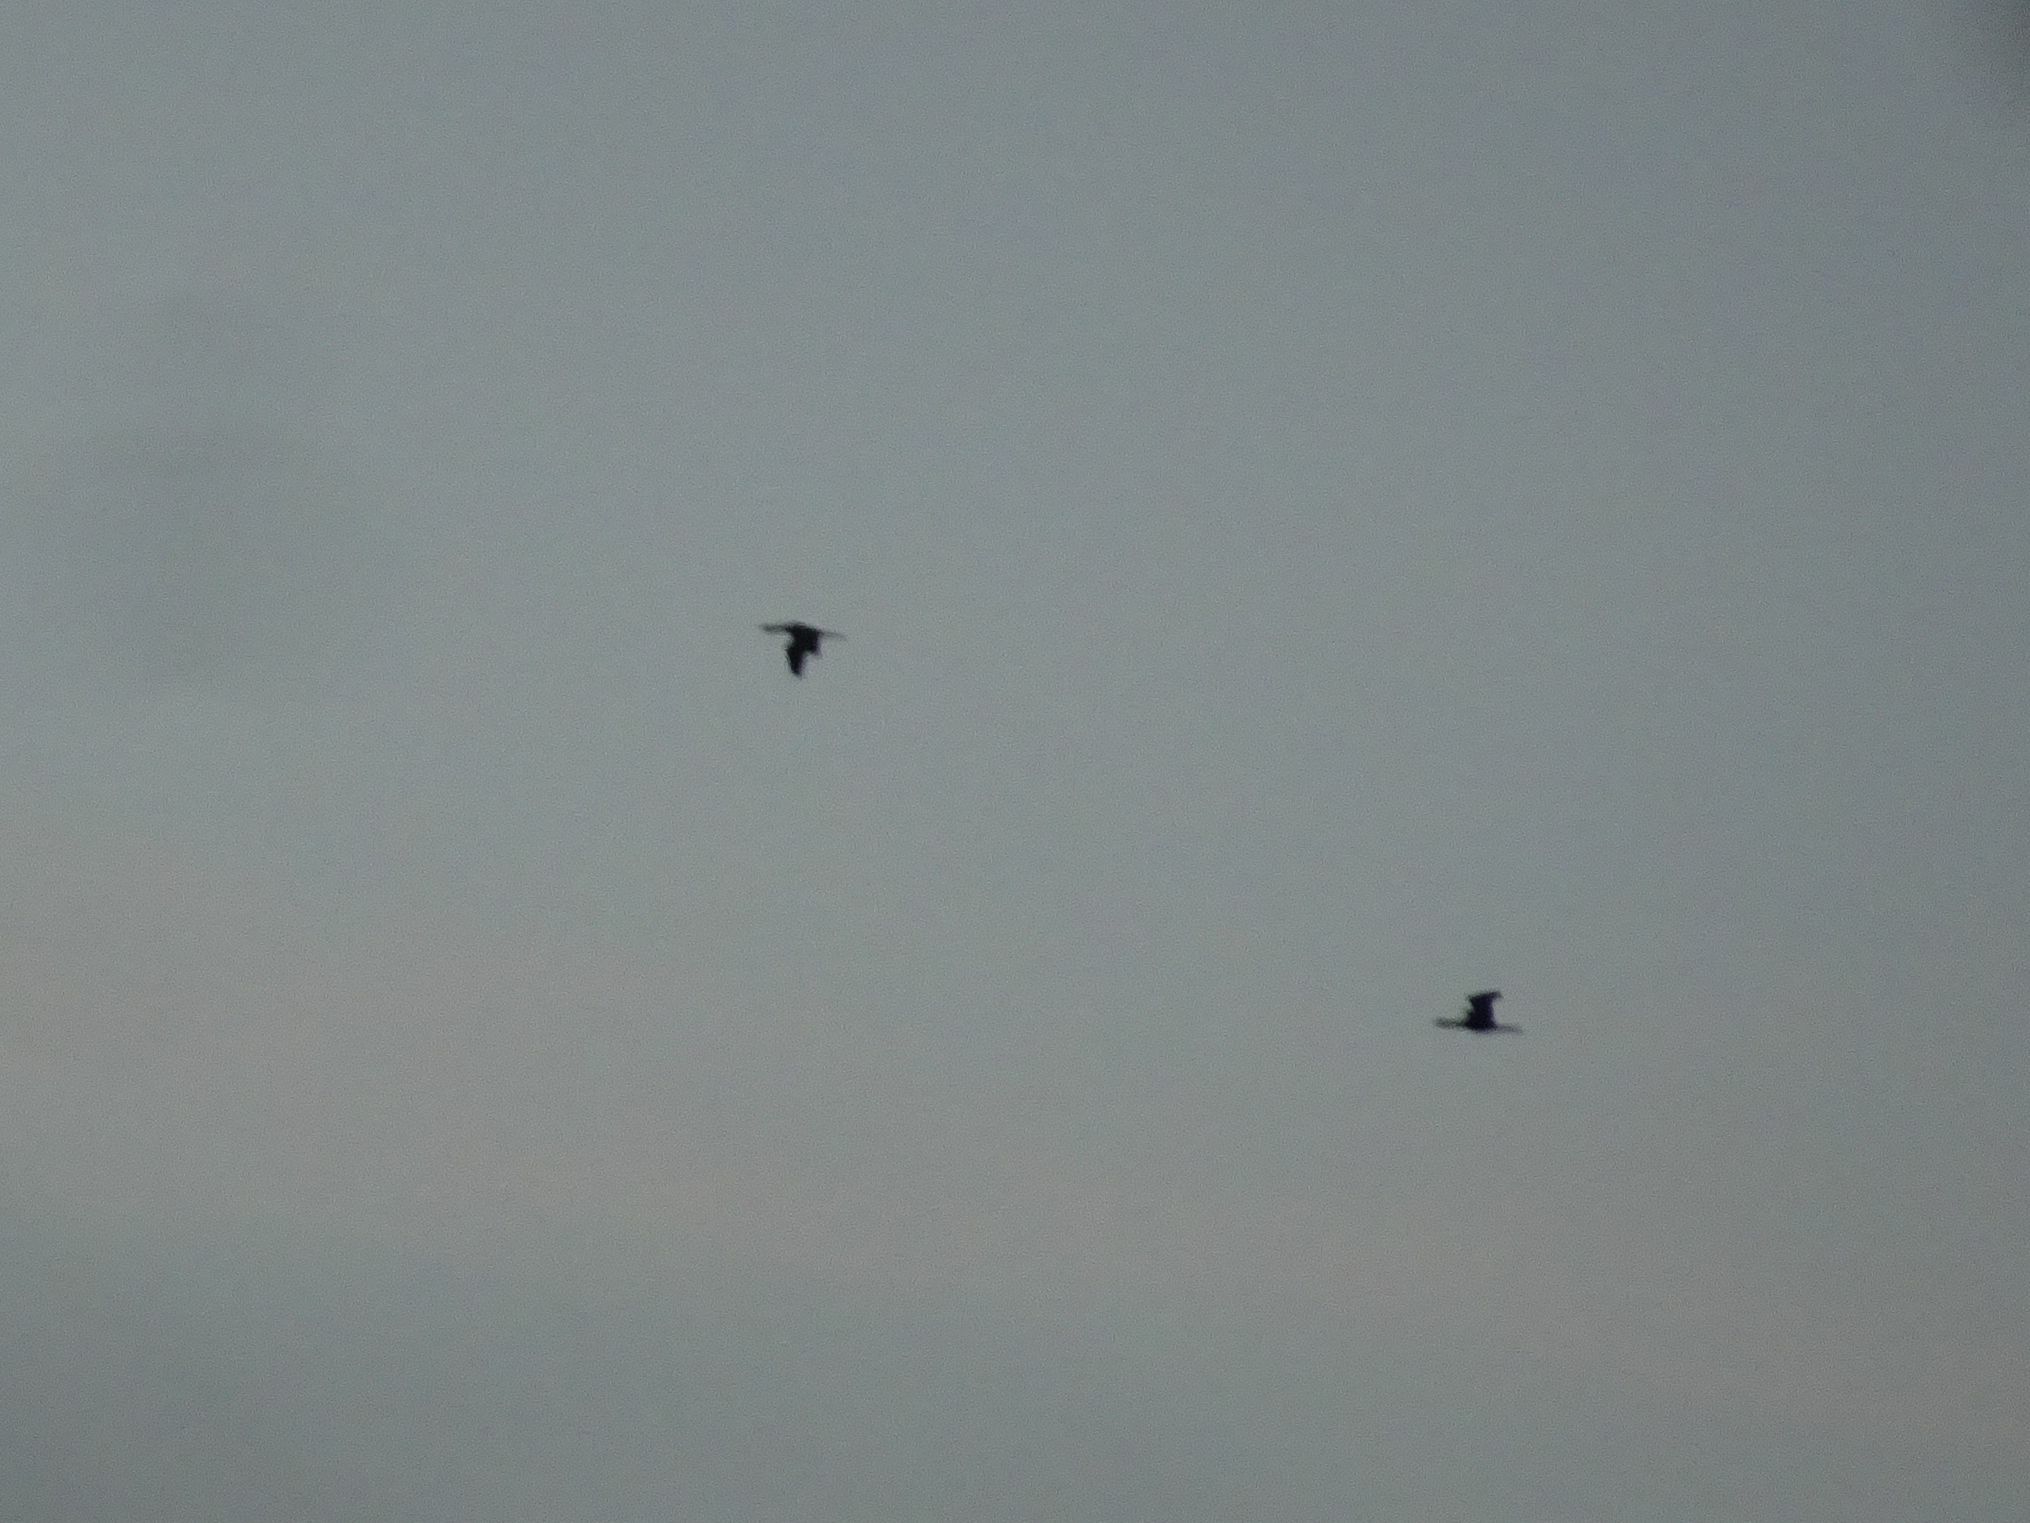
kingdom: Animalia
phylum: Chordata
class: Aves
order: Suliformes
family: Phalacrocoracidae
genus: Microcarbo
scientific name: Microcarbo pygmaeus
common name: Pygmy cormorant
